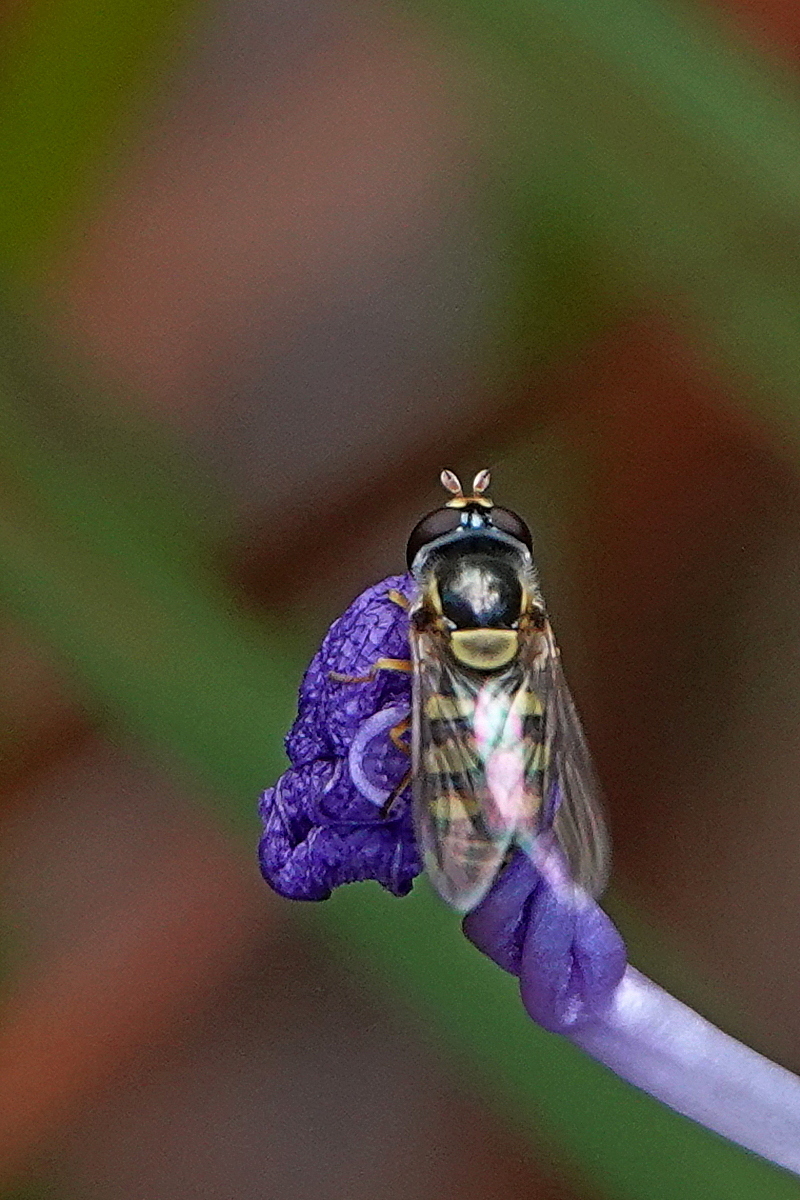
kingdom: Animalia
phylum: Arthropoda
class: Insecta
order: Diptera
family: Syrphidae
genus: Simosyrphus
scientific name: Simosyrphus grandicornis
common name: Hoverfly
